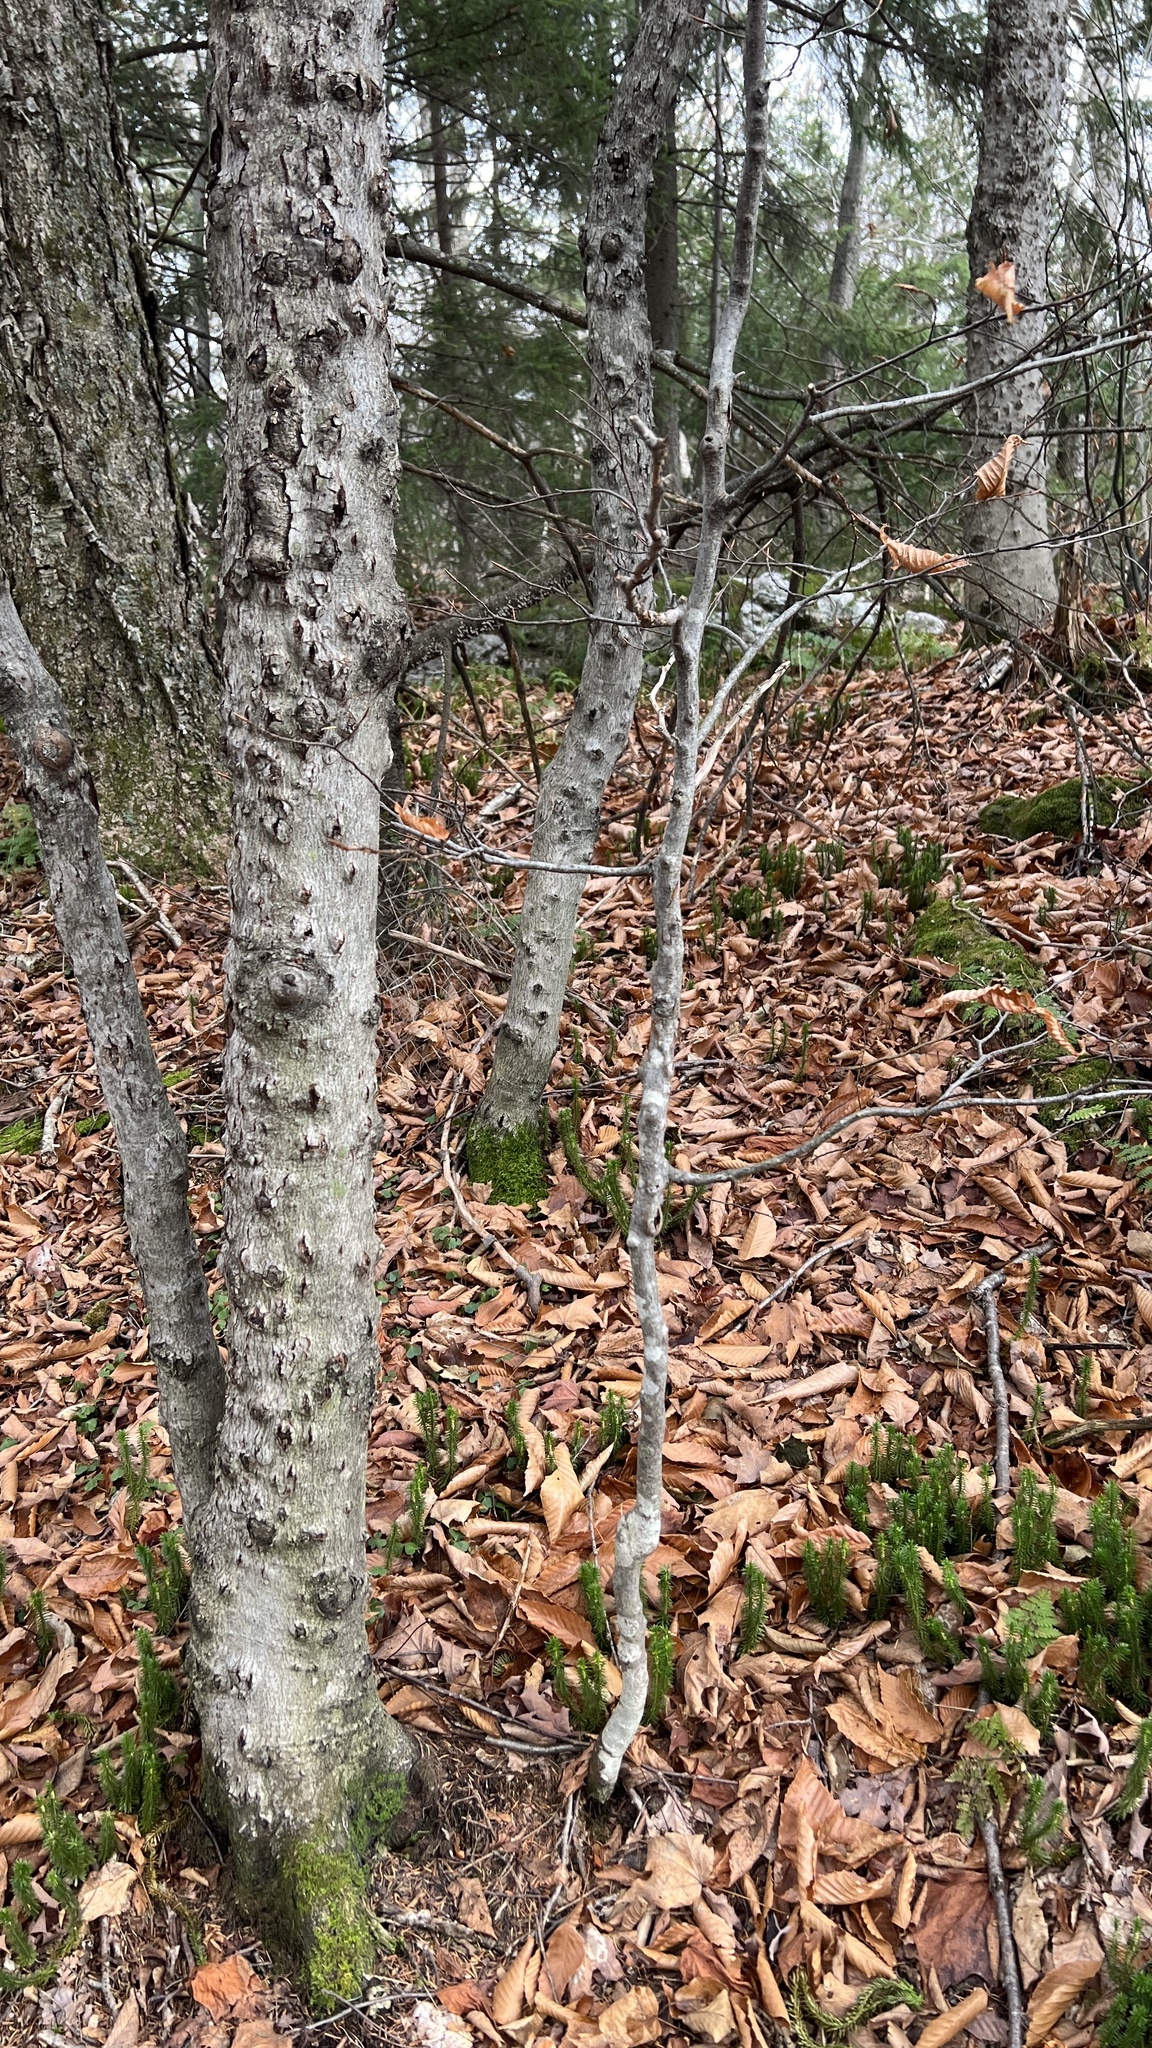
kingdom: Plantae
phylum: Tracheophyta
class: Magnoliopsida
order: Fagales
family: Fagaceae
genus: Fagus
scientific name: Fagus grandifolia
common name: American beech
